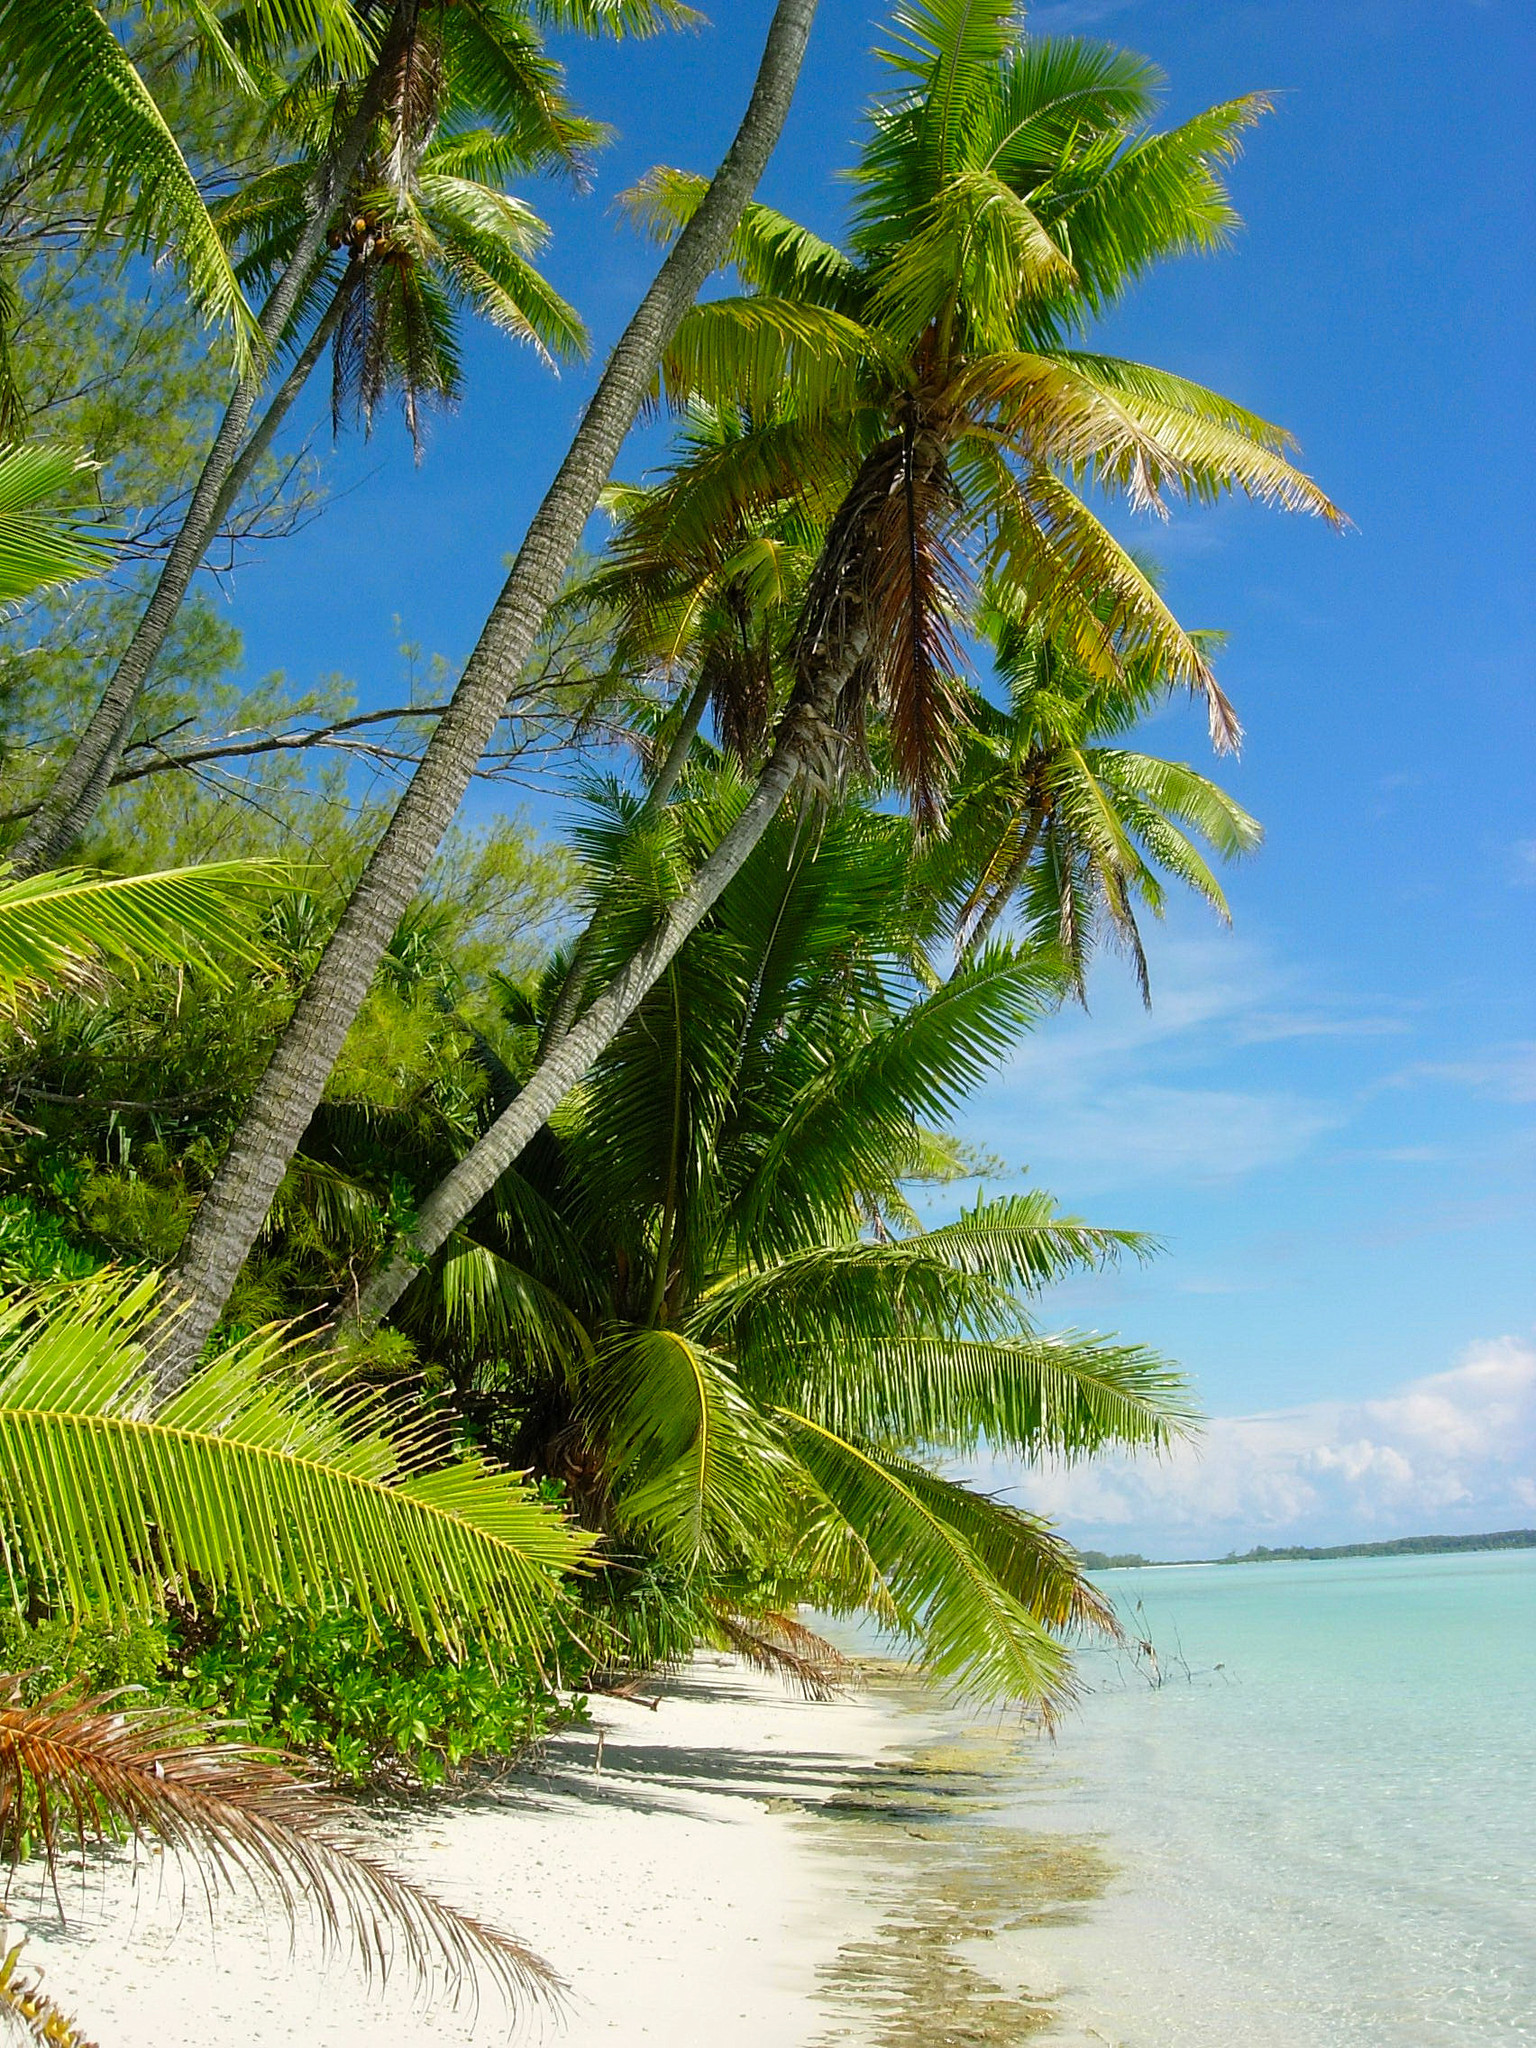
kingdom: Plantae
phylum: Tracheophyta
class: Liliopsida
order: Arecales
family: Arecaceae
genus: Cocos
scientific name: Cocos nucifera
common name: Coconut palm
